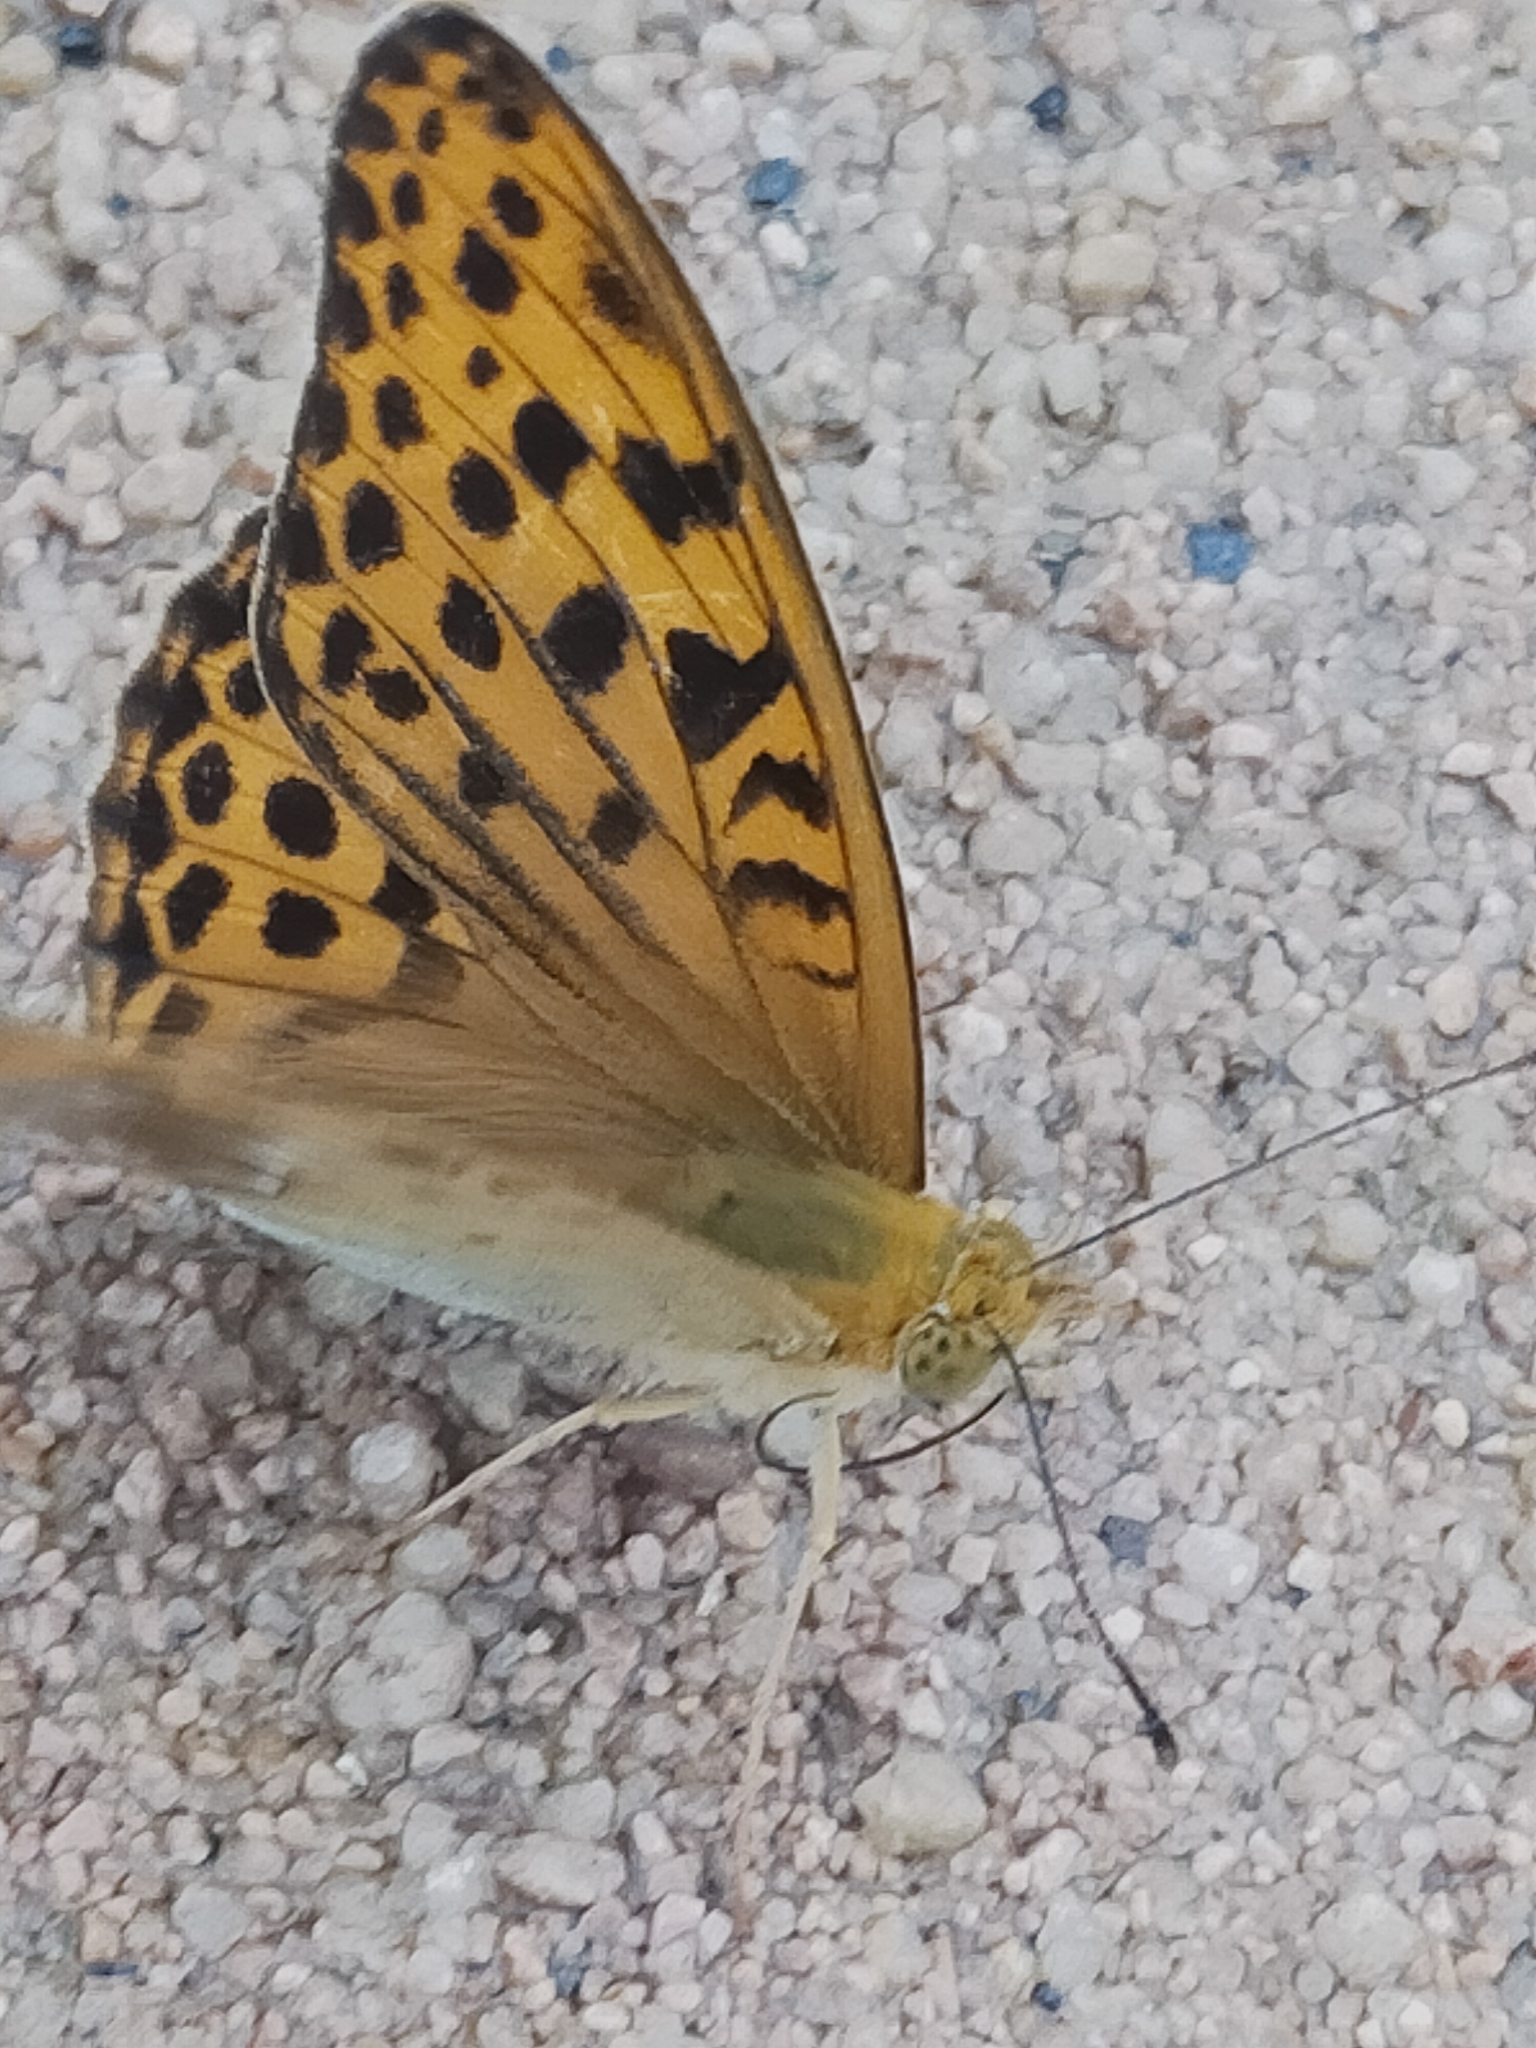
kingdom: Animalia
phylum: Arthropoda
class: Insecta
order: Lepidoptera
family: Nymphalidae
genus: Argyronome
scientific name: Argyronome ruslana
